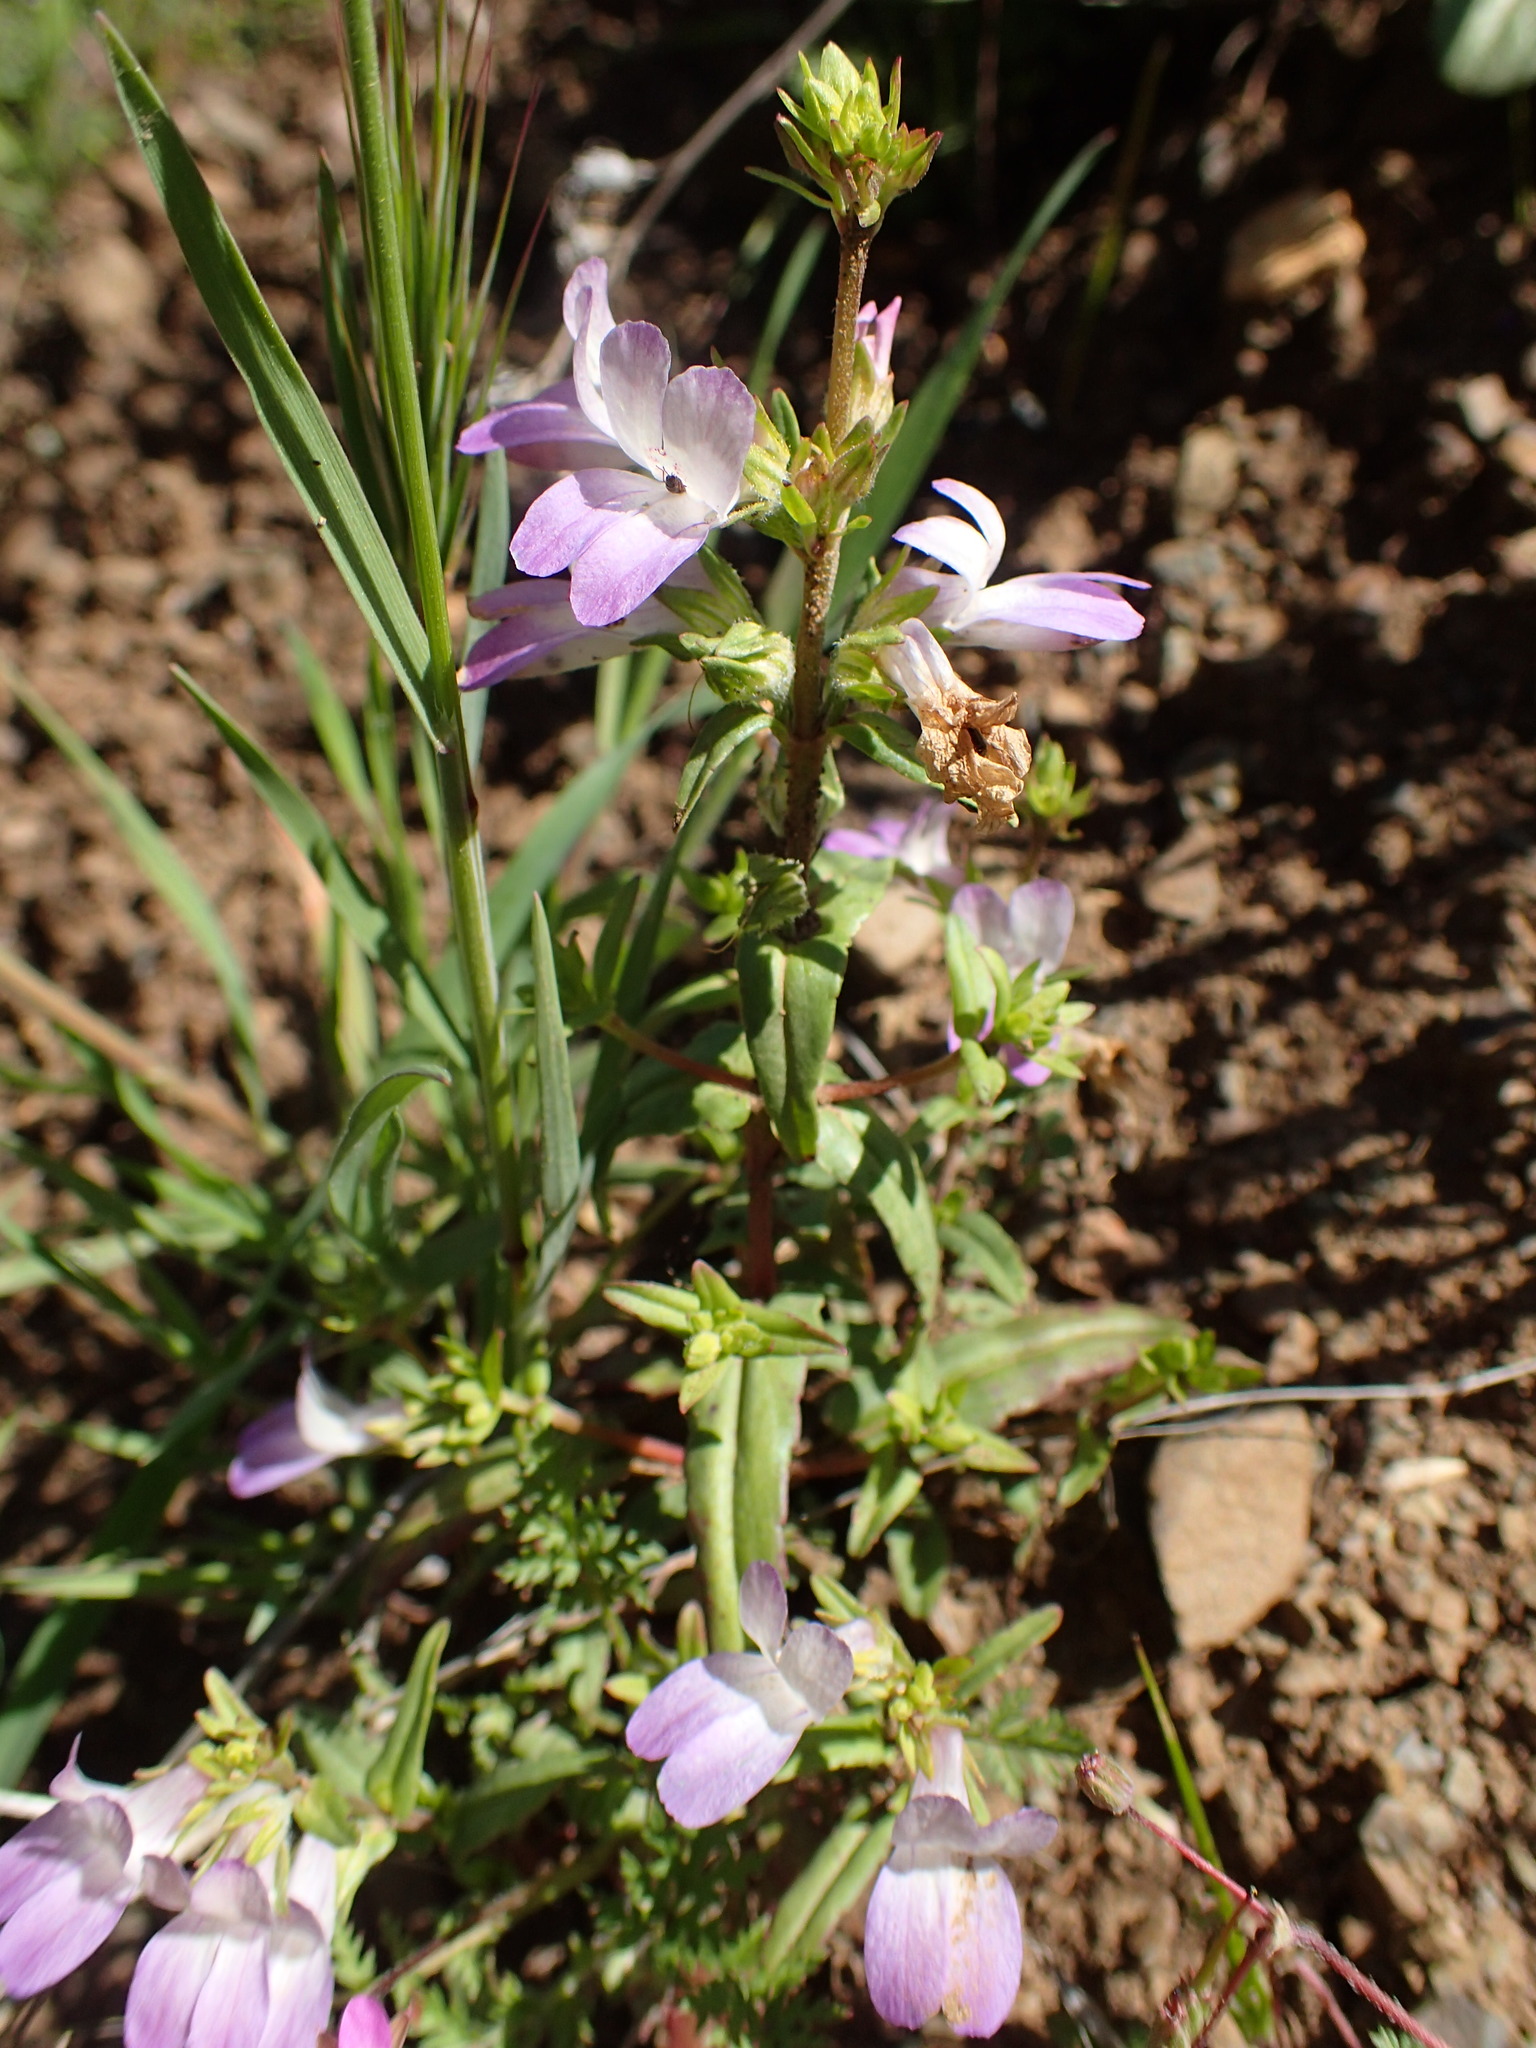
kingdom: Plantae
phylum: Tracheophyta
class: Magnoliopsida
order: Lamiales
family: Plantaginaceae
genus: Collinsia
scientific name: Collinsia heterophylla
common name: Chinese-houses
